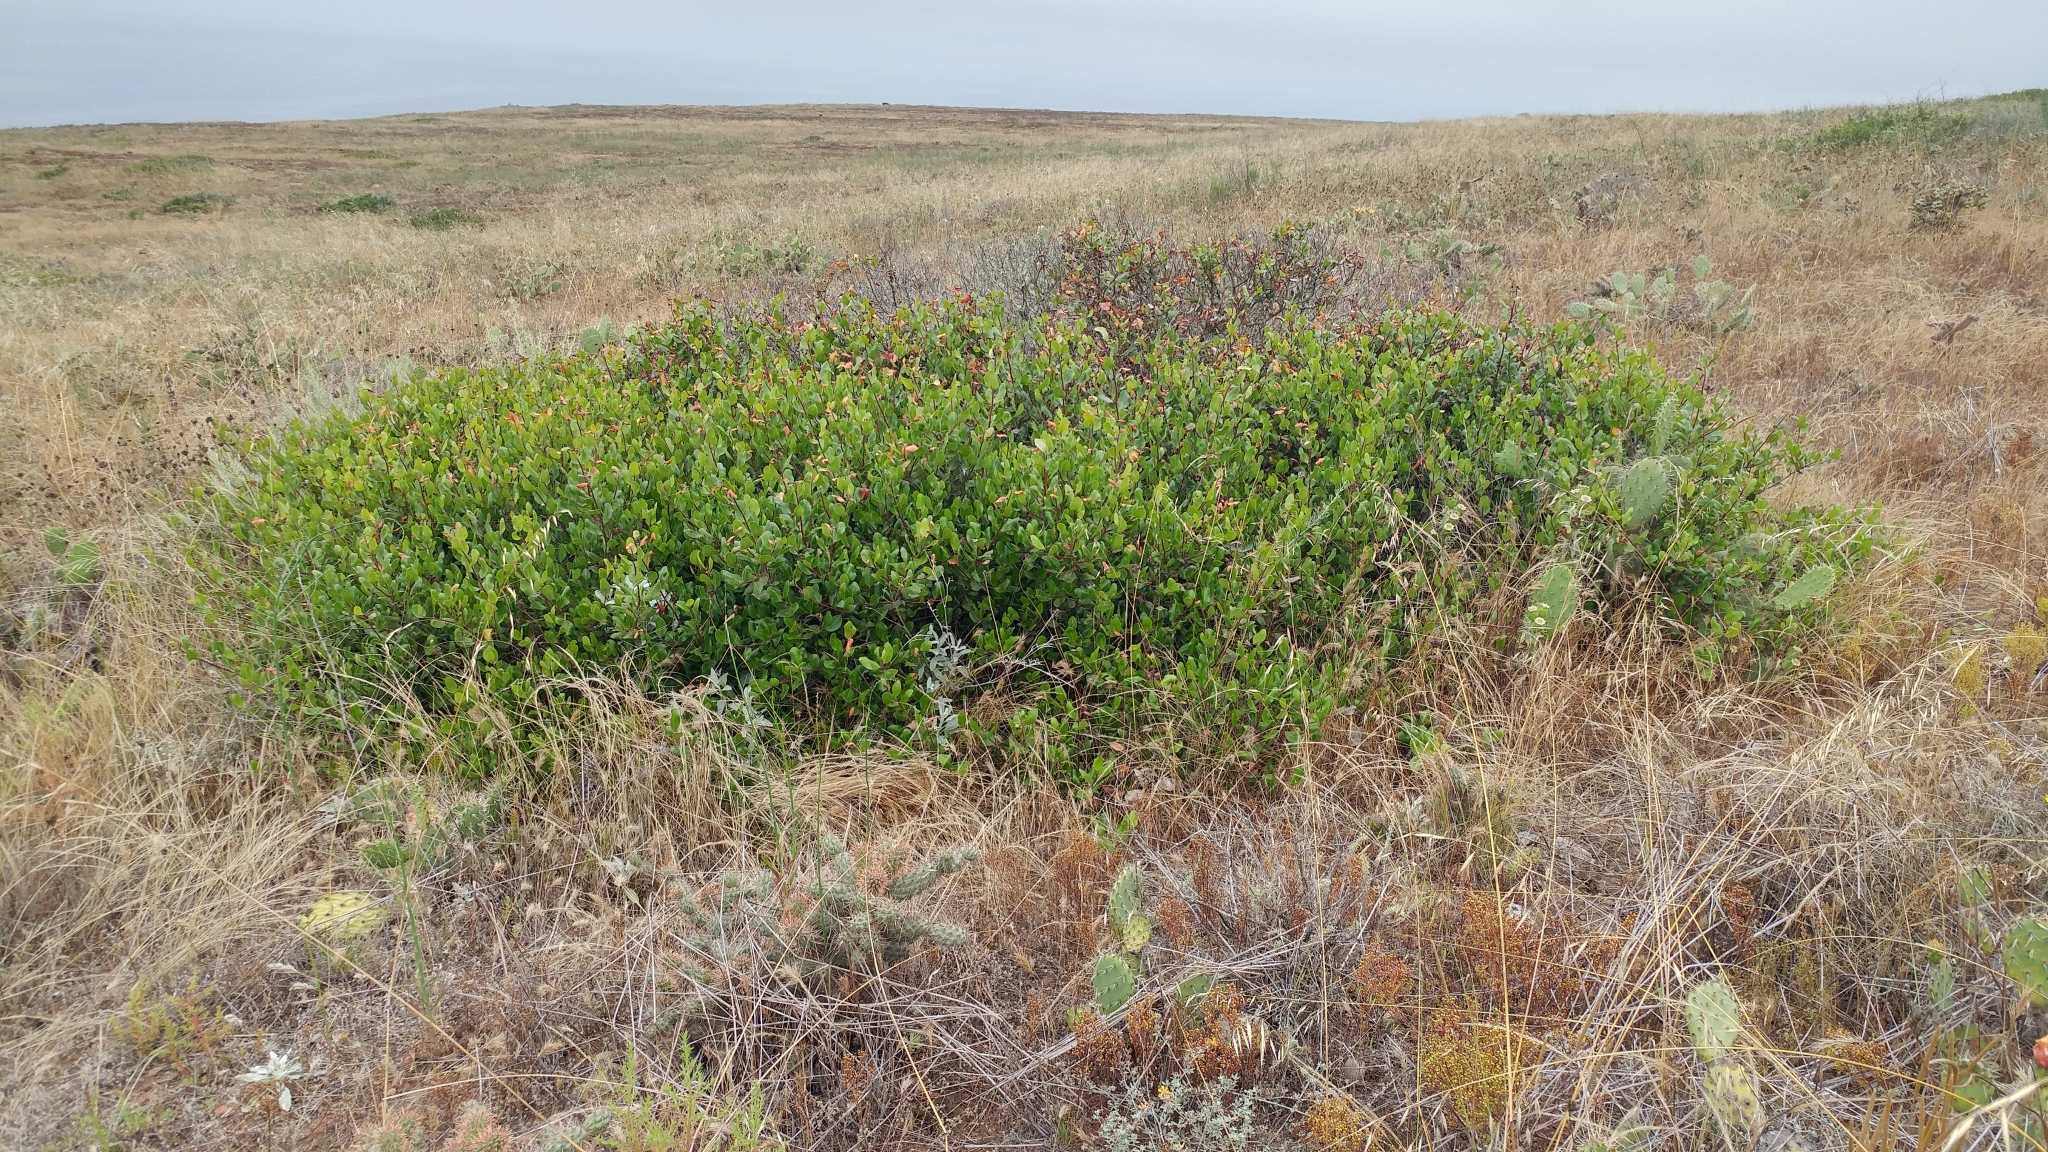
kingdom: Plantae
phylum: Tracheophyta
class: Magnoliopsida
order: Sapindales
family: Anacardiaceae
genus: Rhus
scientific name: Rhus integrifolia
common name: Lemonade sumac
